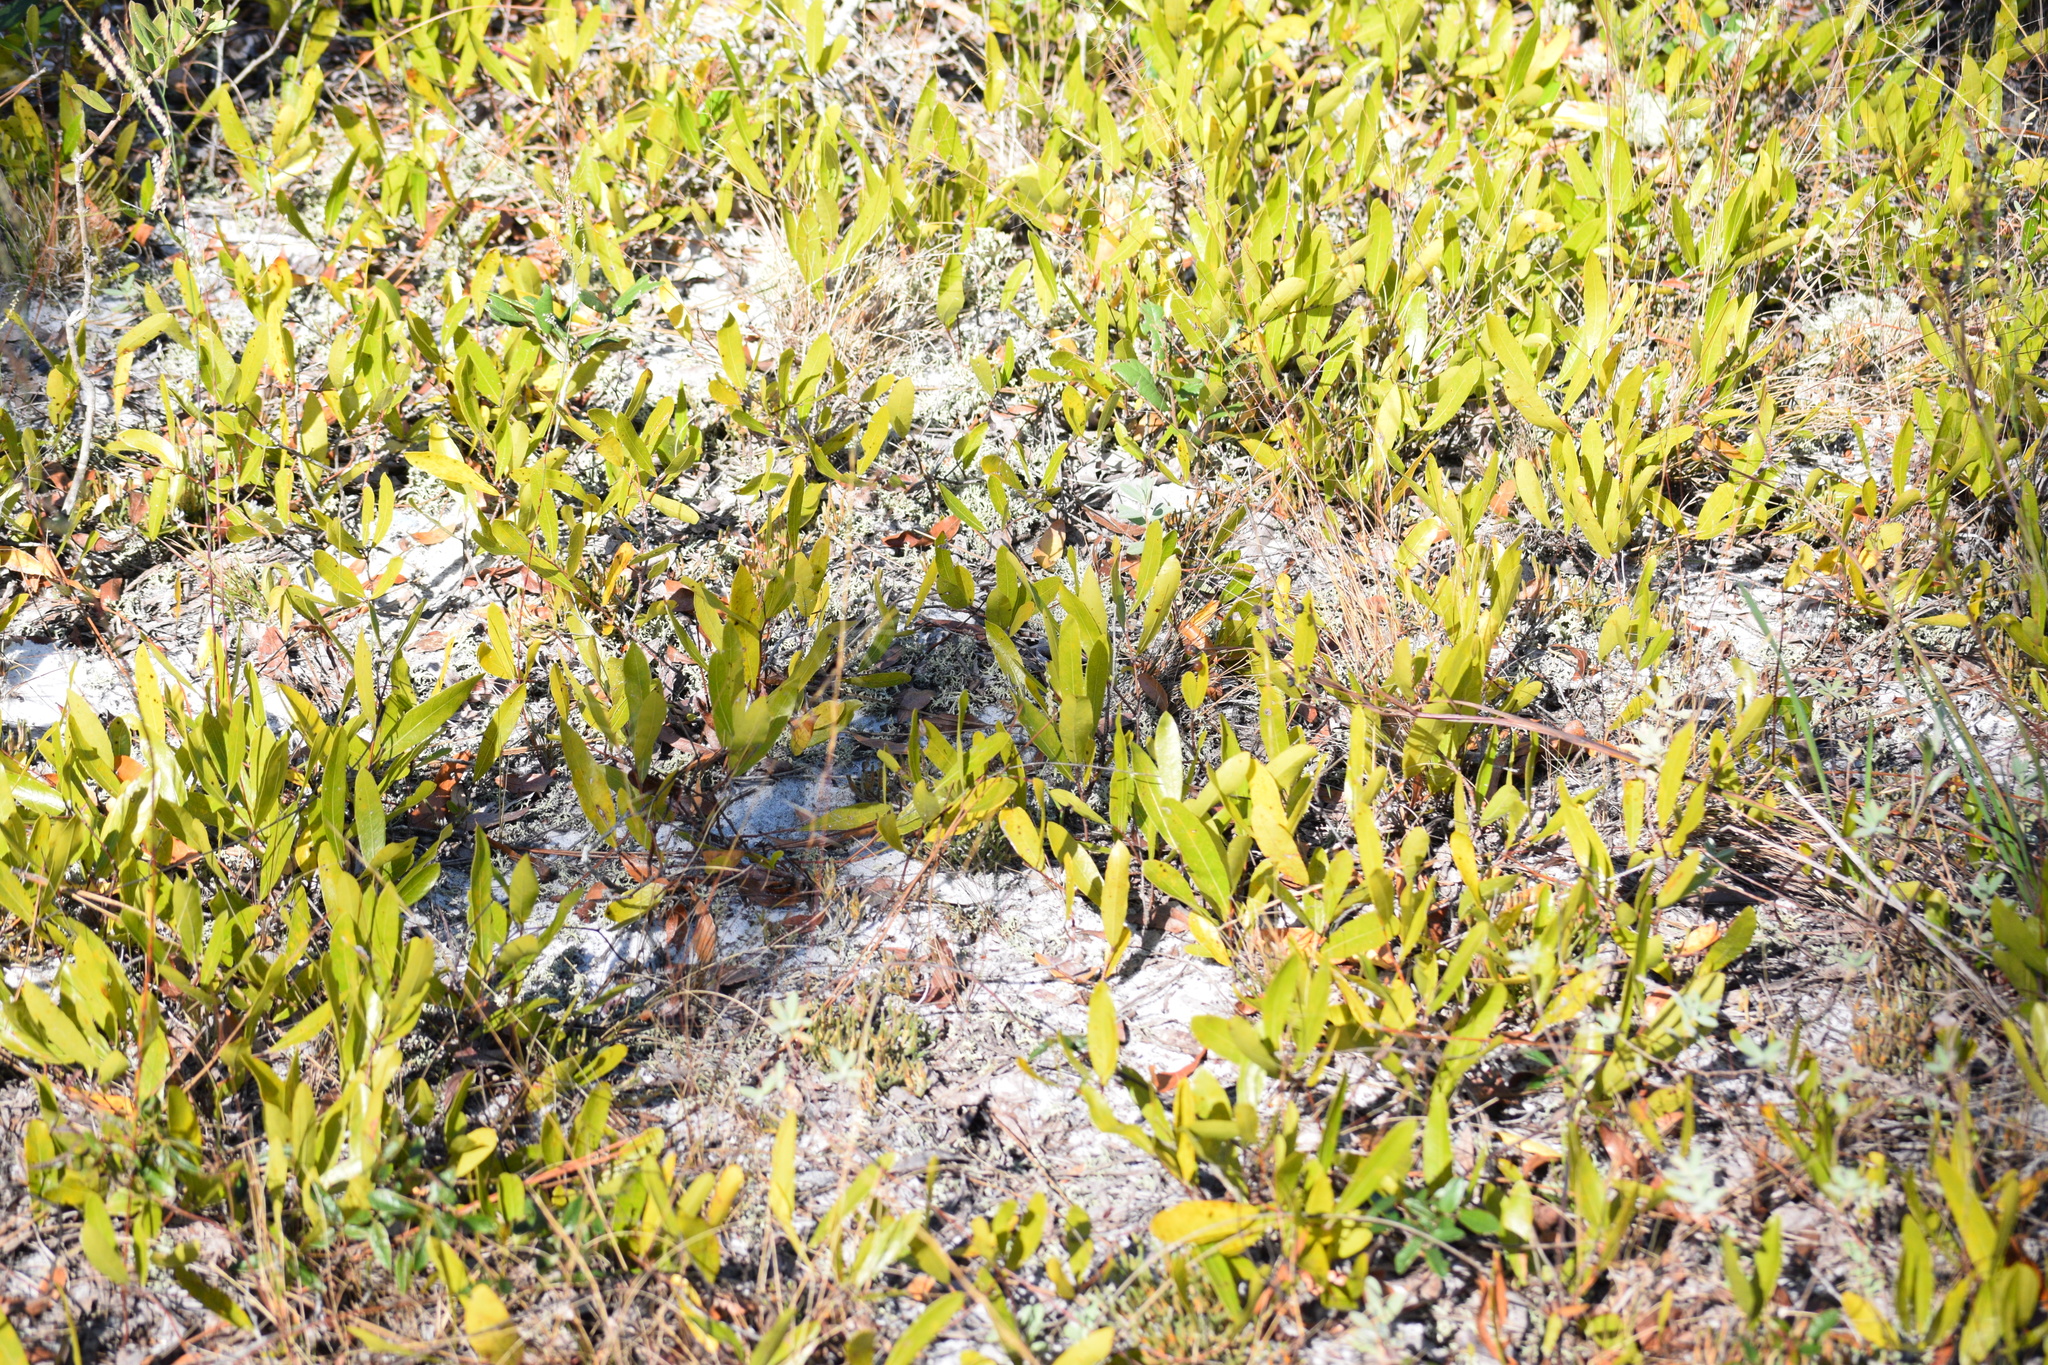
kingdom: Plantae
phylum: Tracheophyta
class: Magnoliopsida
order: Malpighiales
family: Chrysobalanaceae
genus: Geobalanus
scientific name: Geobalanus oblongifolius
